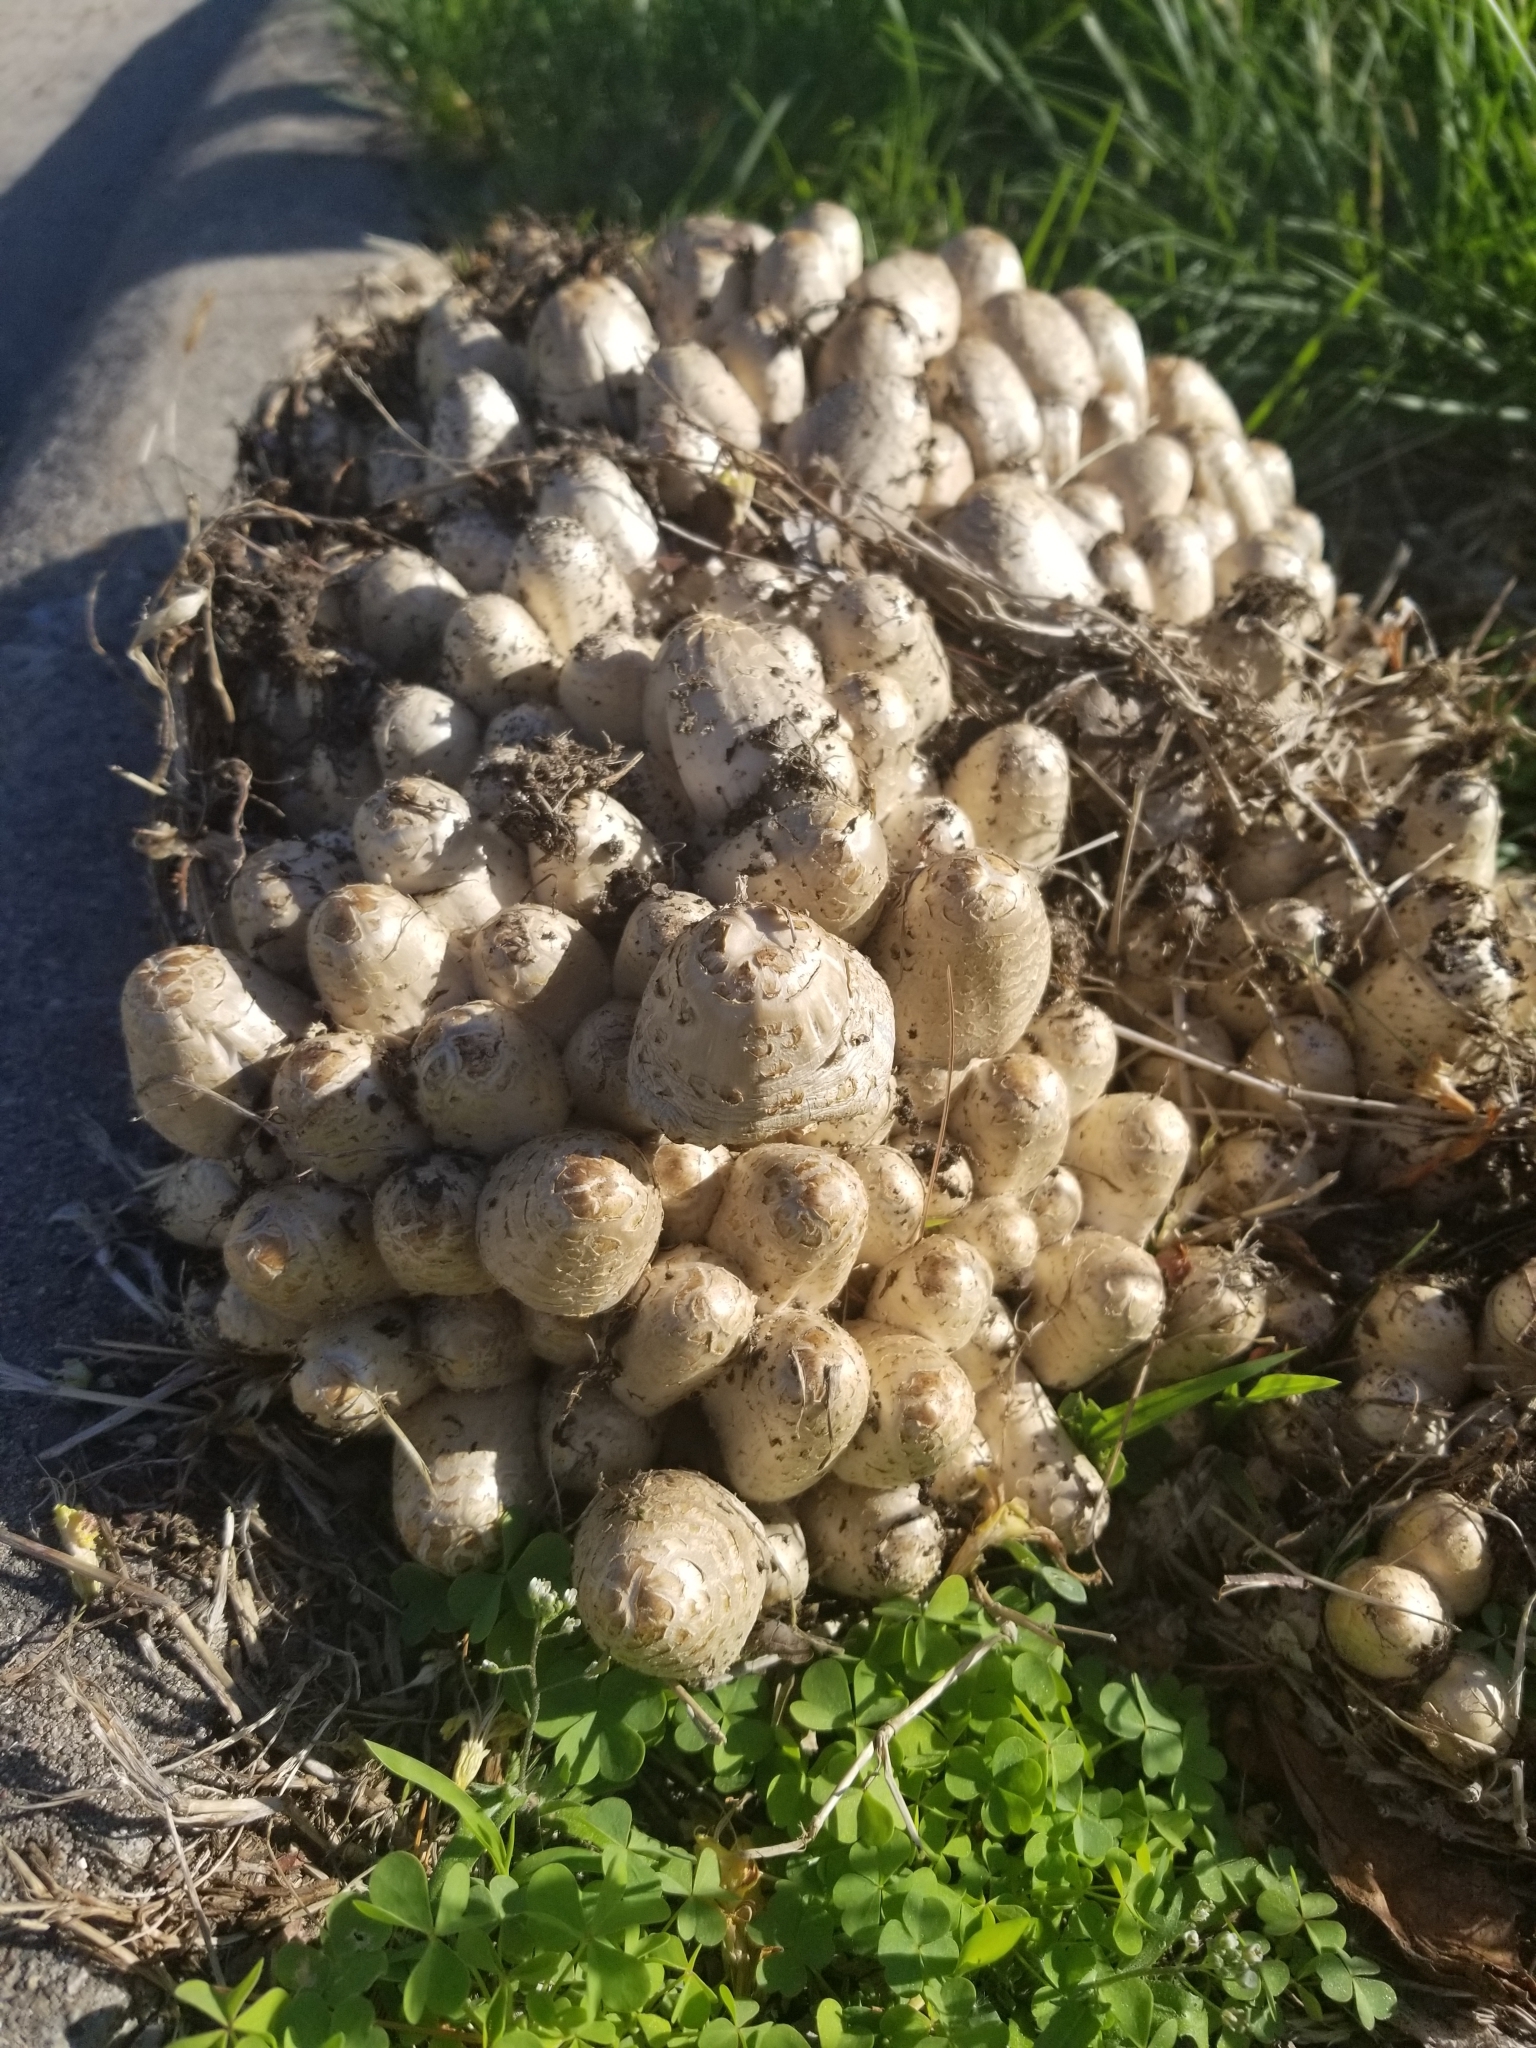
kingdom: Fungi
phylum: Basidiomycota
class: Agaricomycetes
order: Agaricales
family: Psathyrellaceae
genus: Coprinopsis
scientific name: Coprinopsis variegata
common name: Scaly ink cap
